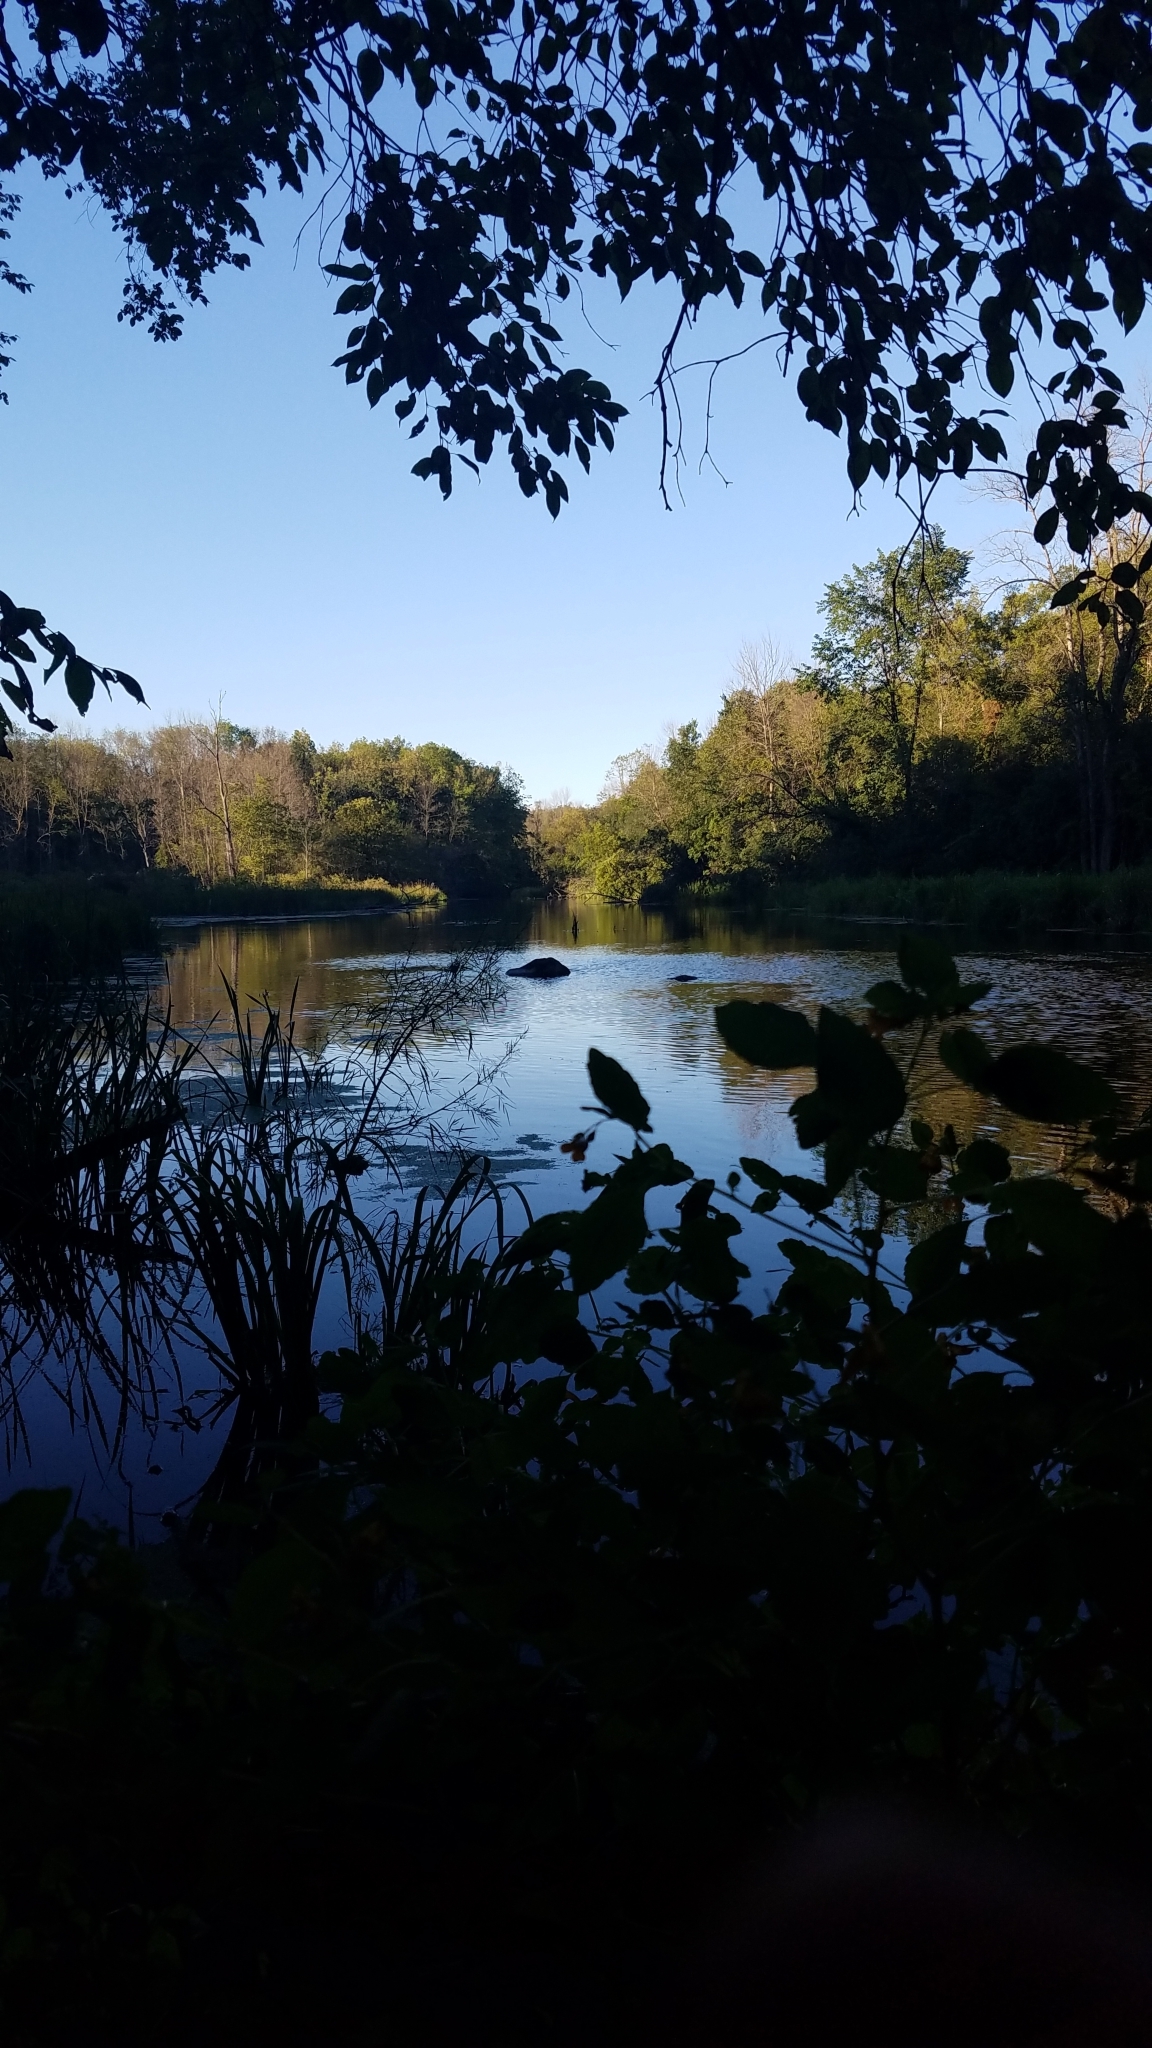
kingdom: Plantae
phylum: Tracheophyta
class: Magnoliopsida
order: Ericales
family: Balsaminaceae
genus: Impatiens
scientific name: Impatiens capensis
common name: Orange balsam
